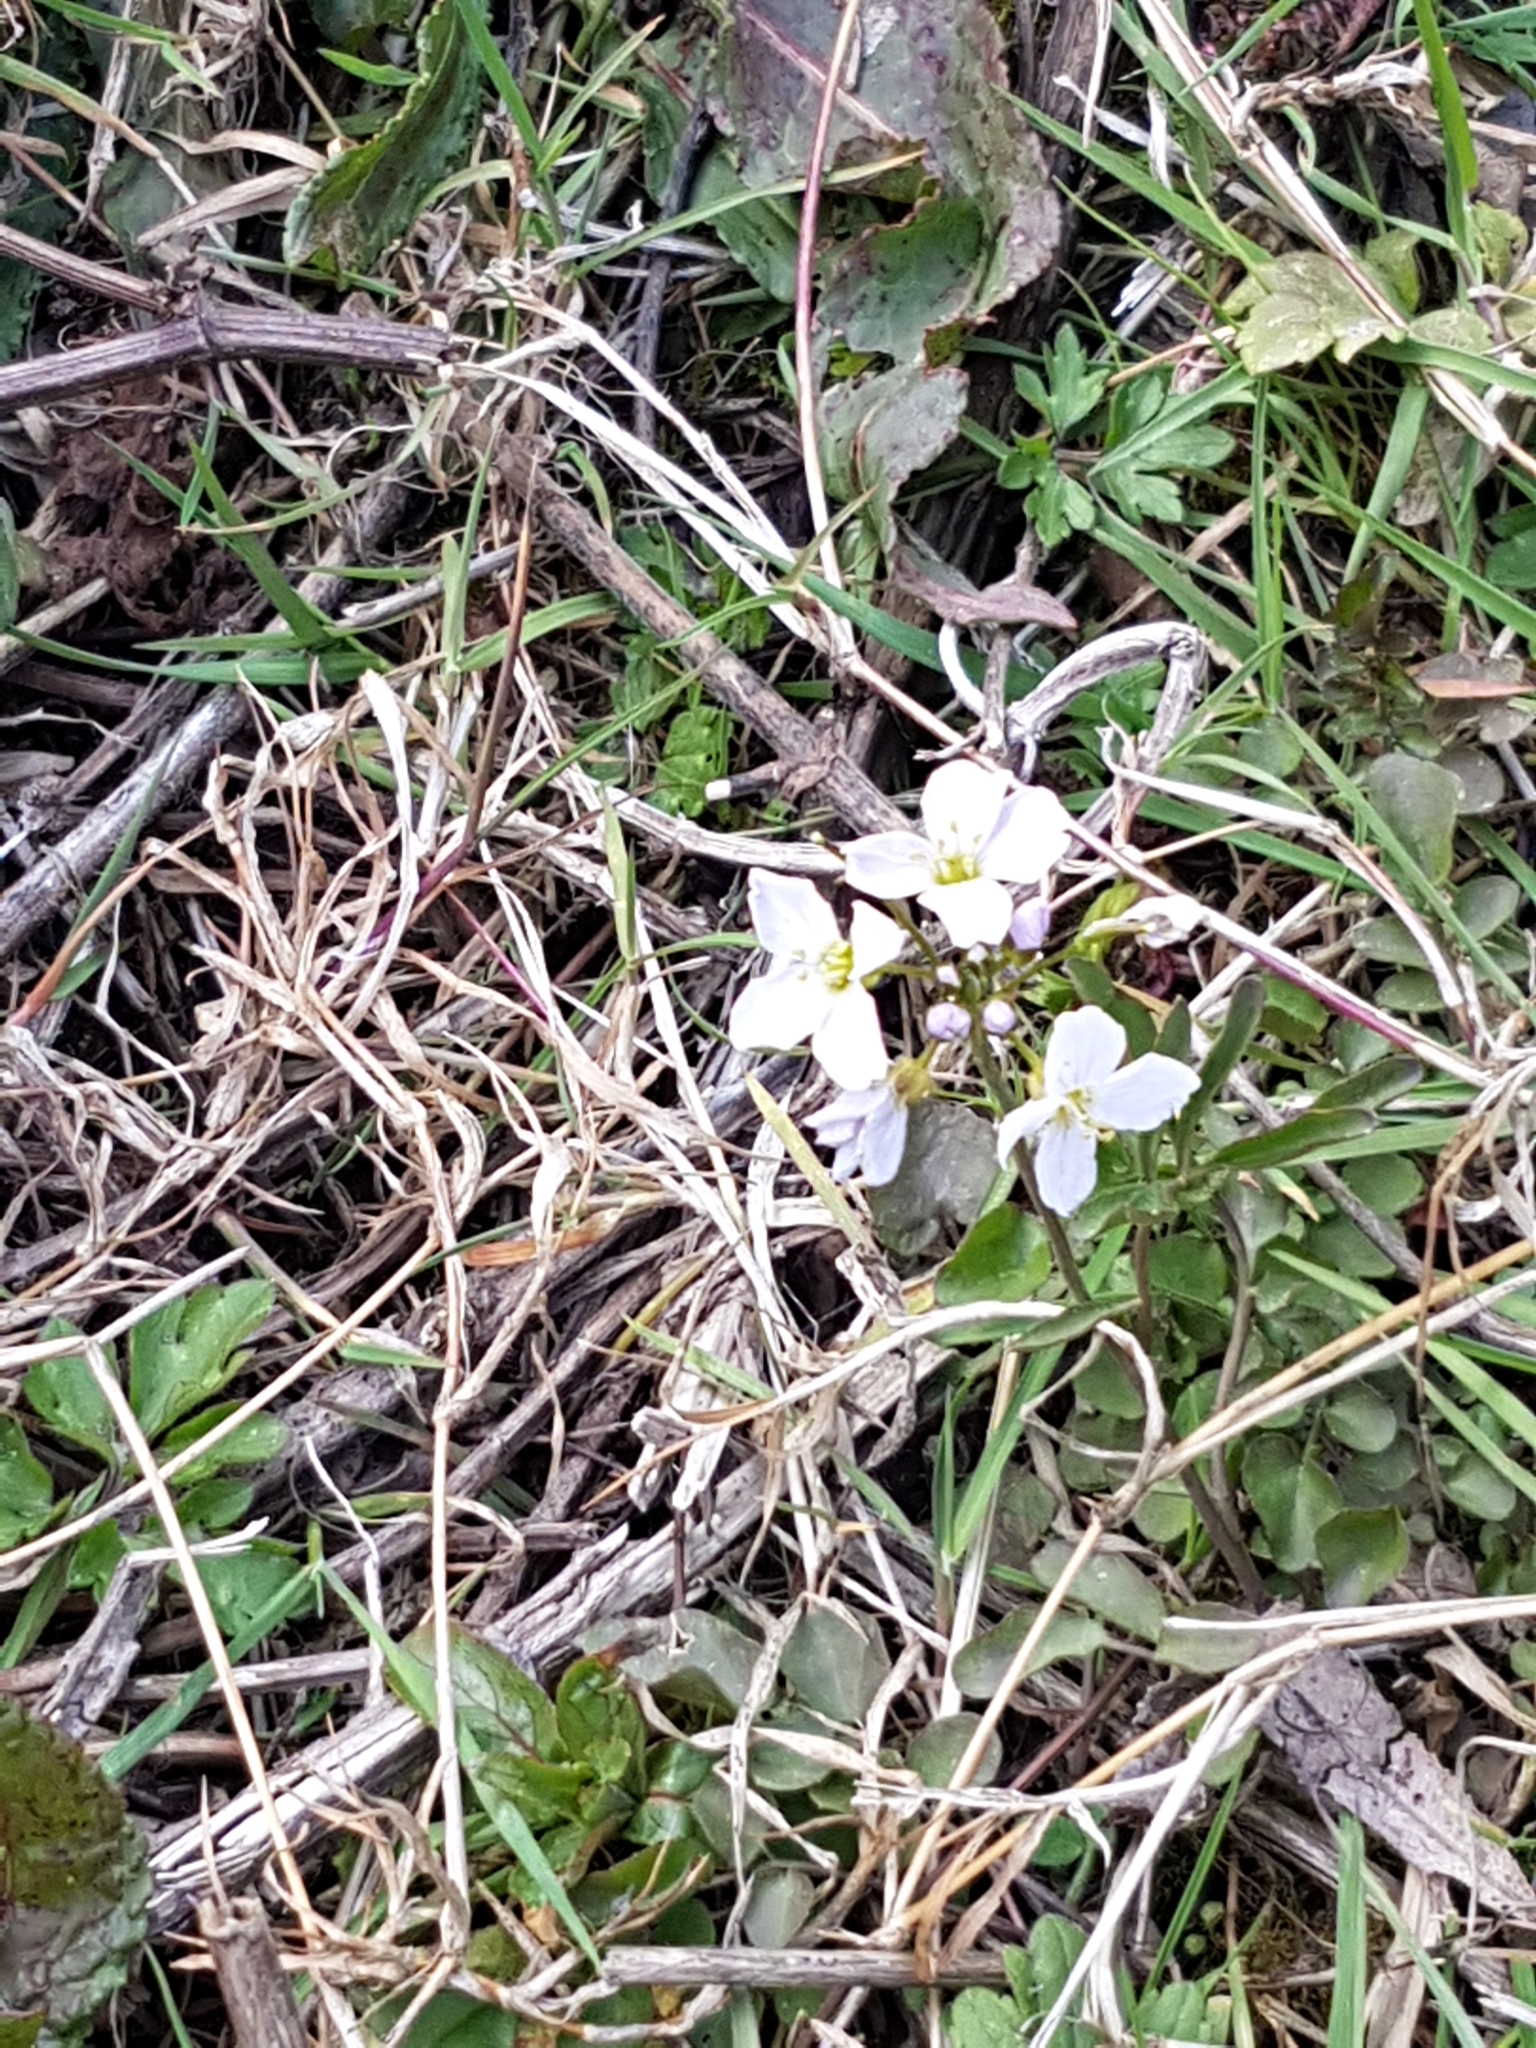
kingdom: Plantae
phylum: Tracheophyta
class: Magnoliopsida
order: Brassicales
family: Brassicaceae
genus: Cardamine
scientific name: Cardamine pratensis
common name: Cuckoo flower
